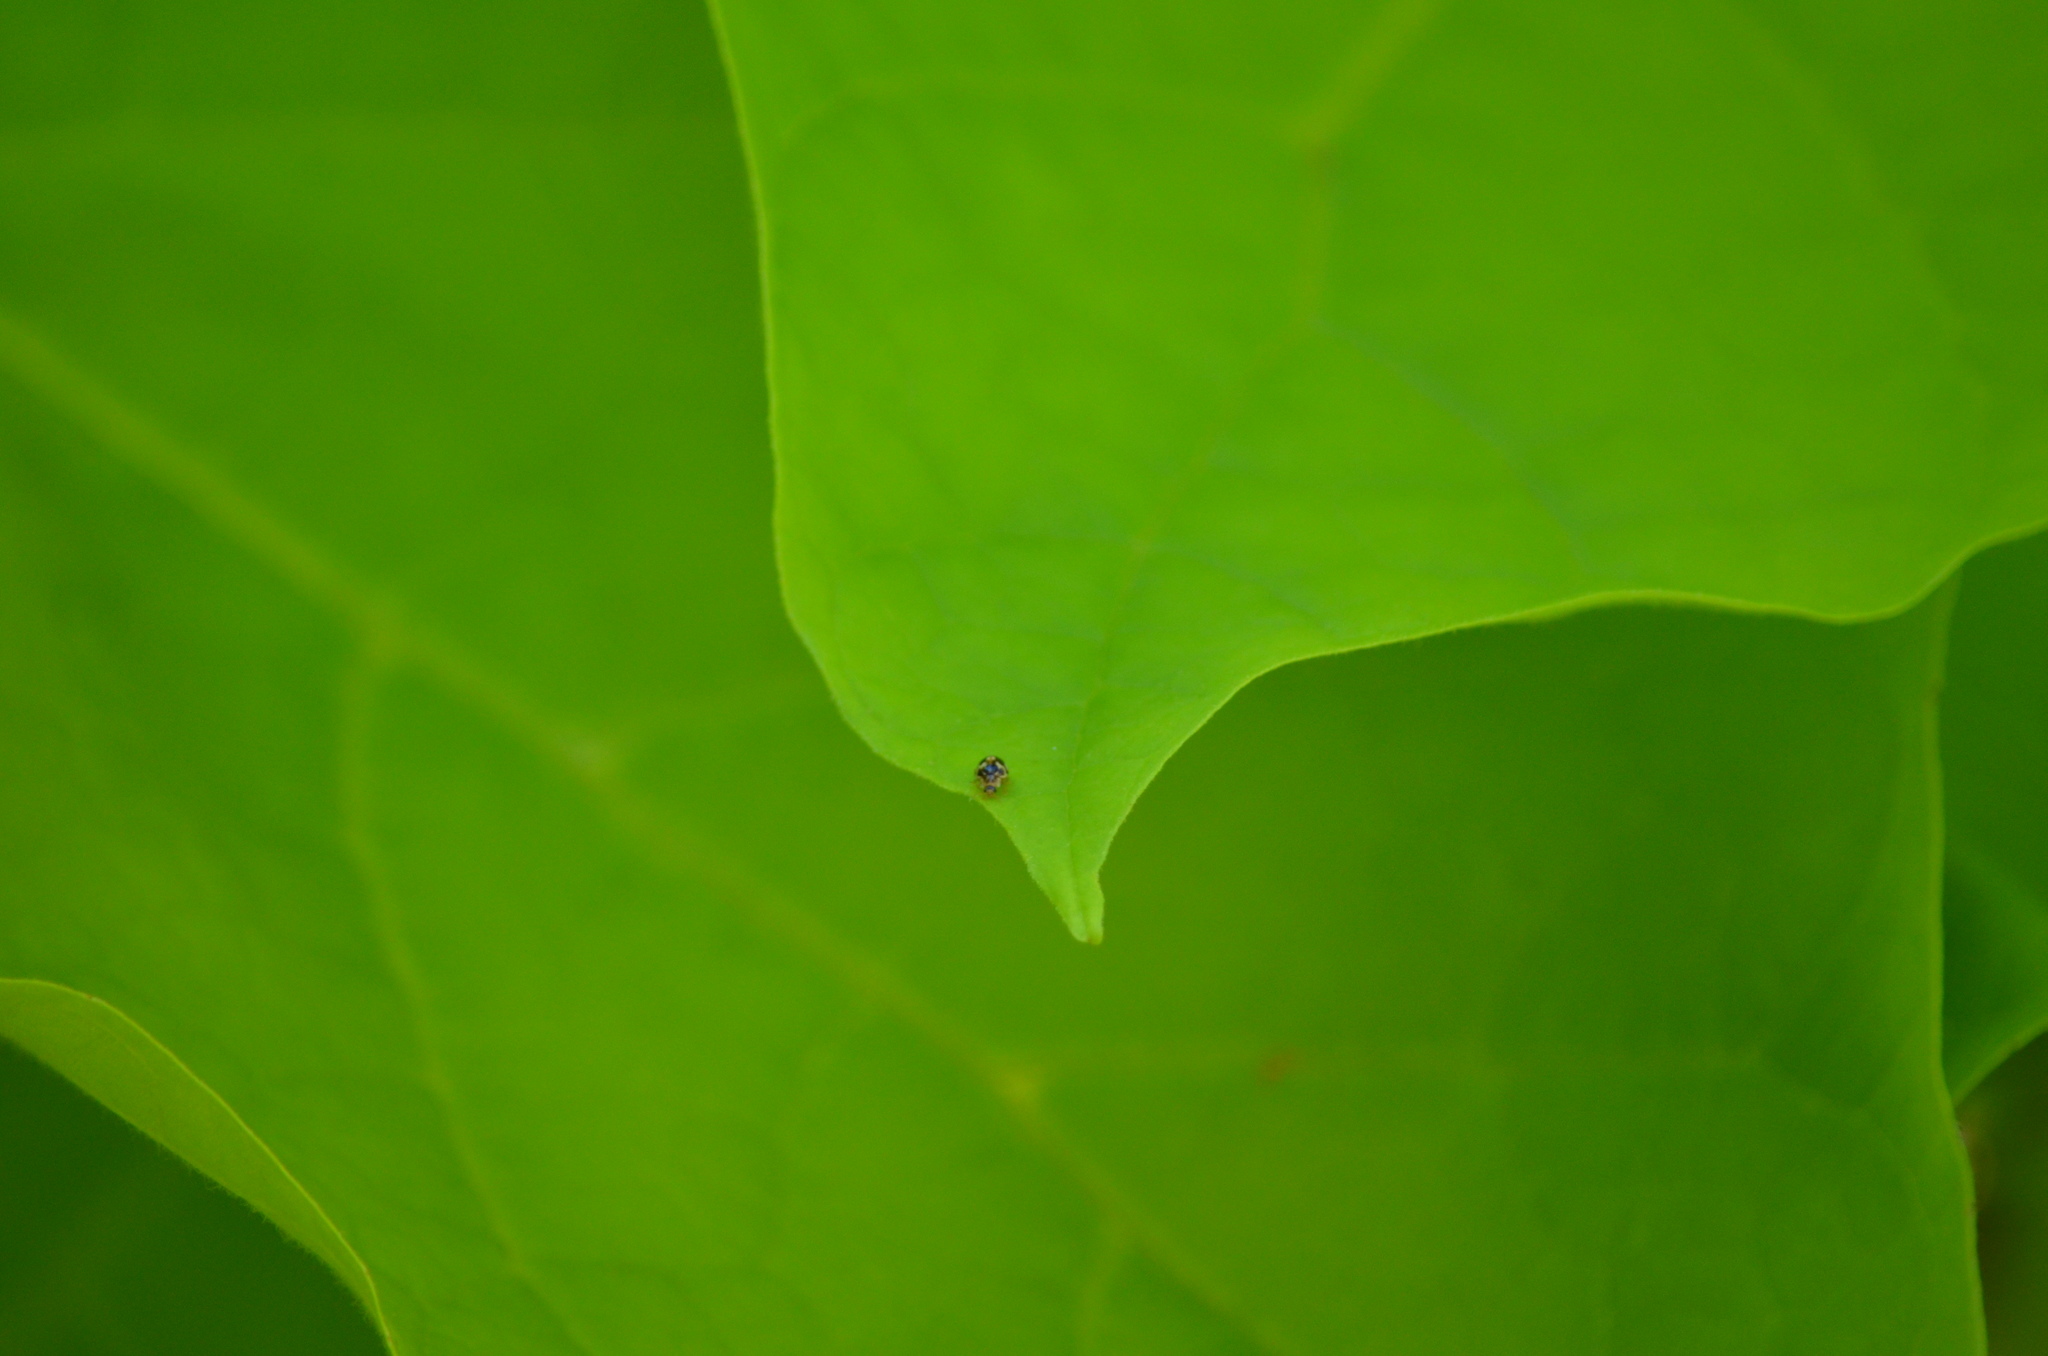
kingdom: Animalia
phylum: Arthropoda
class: Insecta
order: Coleoptera
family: Coccinellidae
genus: Psyllobora
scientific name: Psyllobora vigintimaculata
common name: Ladybird beetle
